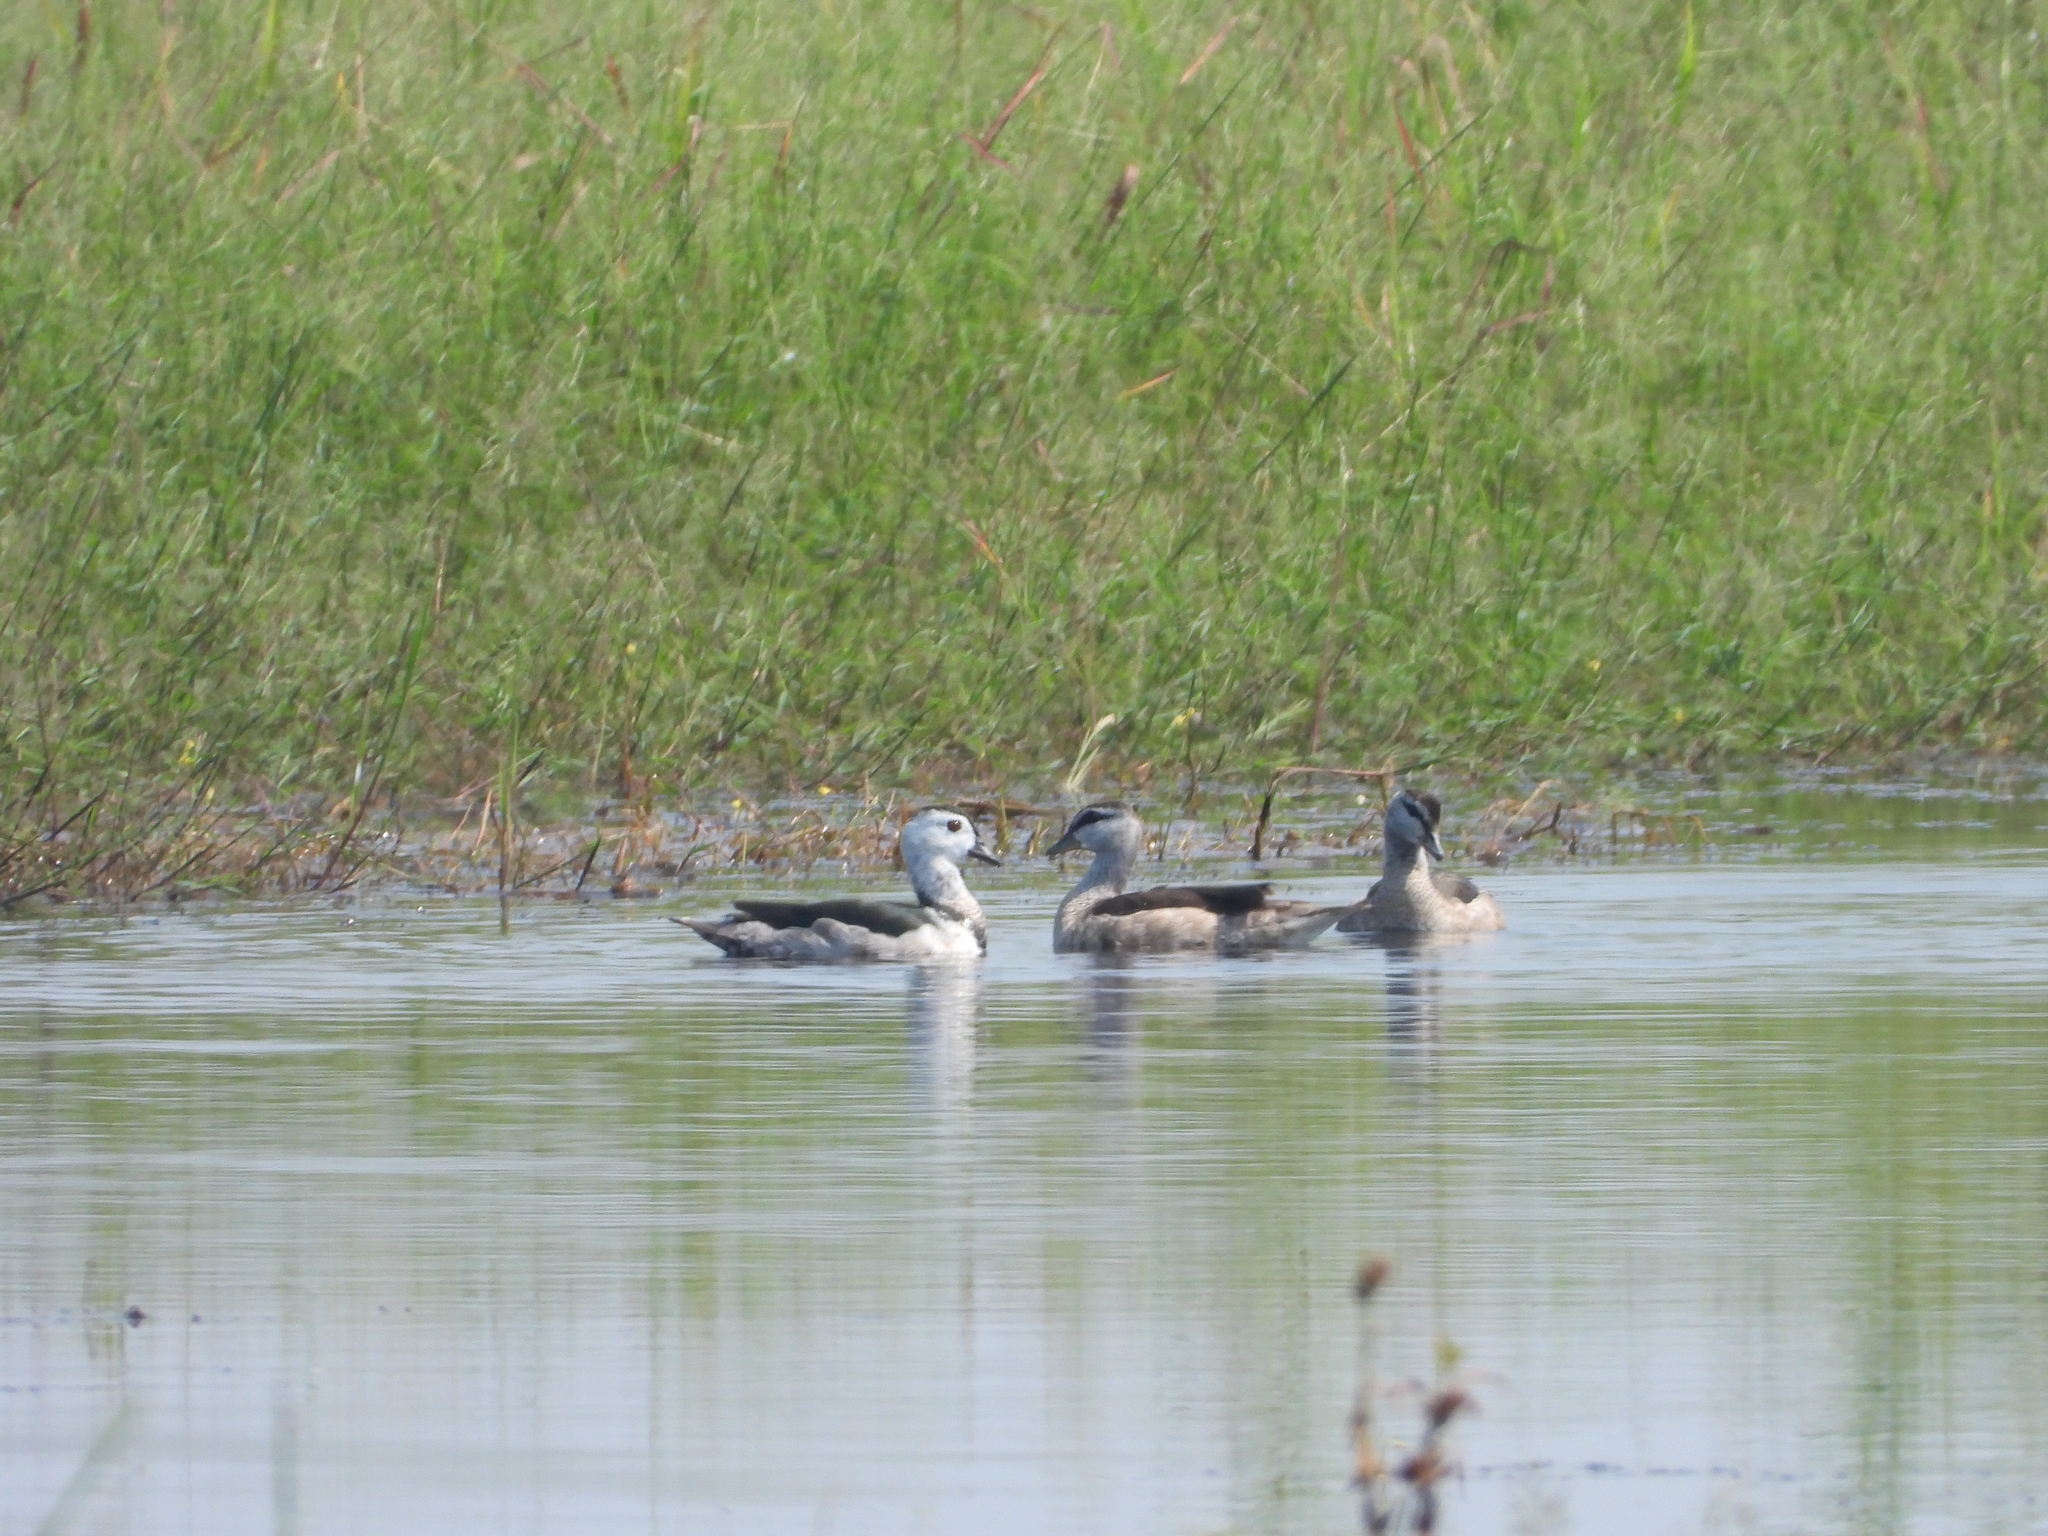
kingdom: Animalia
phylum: Chordata
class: Aves
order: Anseriformes
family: Anatidae
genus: Nettapus
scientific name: Nettapus coromandelianus
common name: Cotton pygmy-goose
